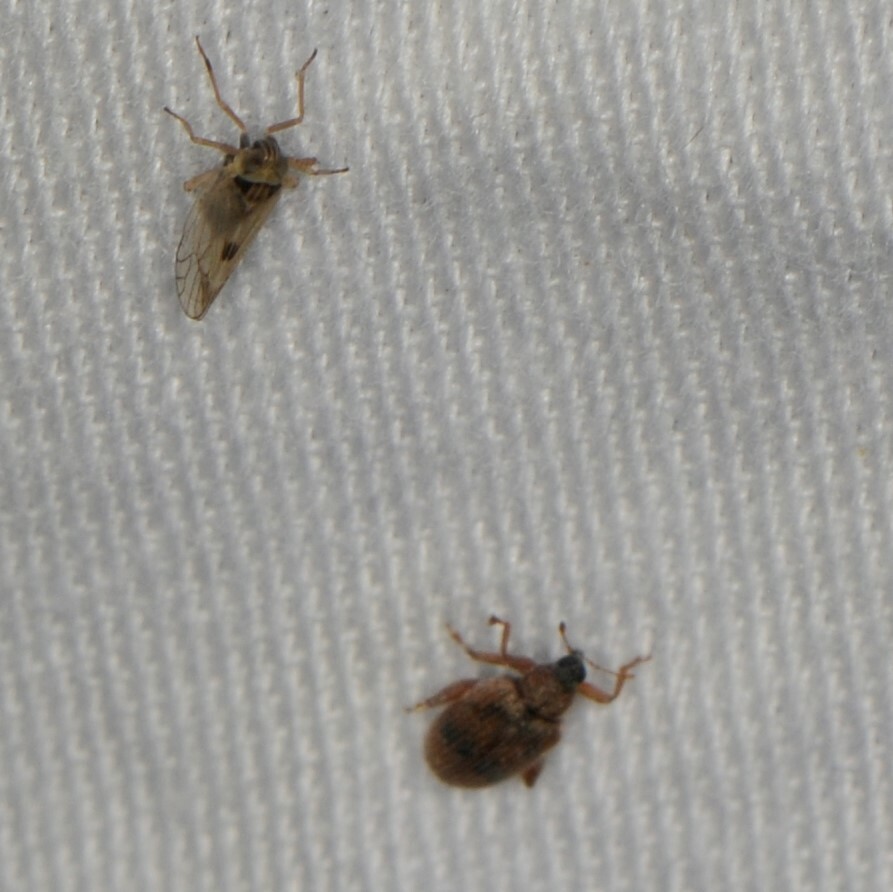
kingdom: Animalia
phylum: Arthropoda
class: Insecta
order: Hemiptera
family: Delphacidae
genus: Chionomus
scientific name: Chionomus
